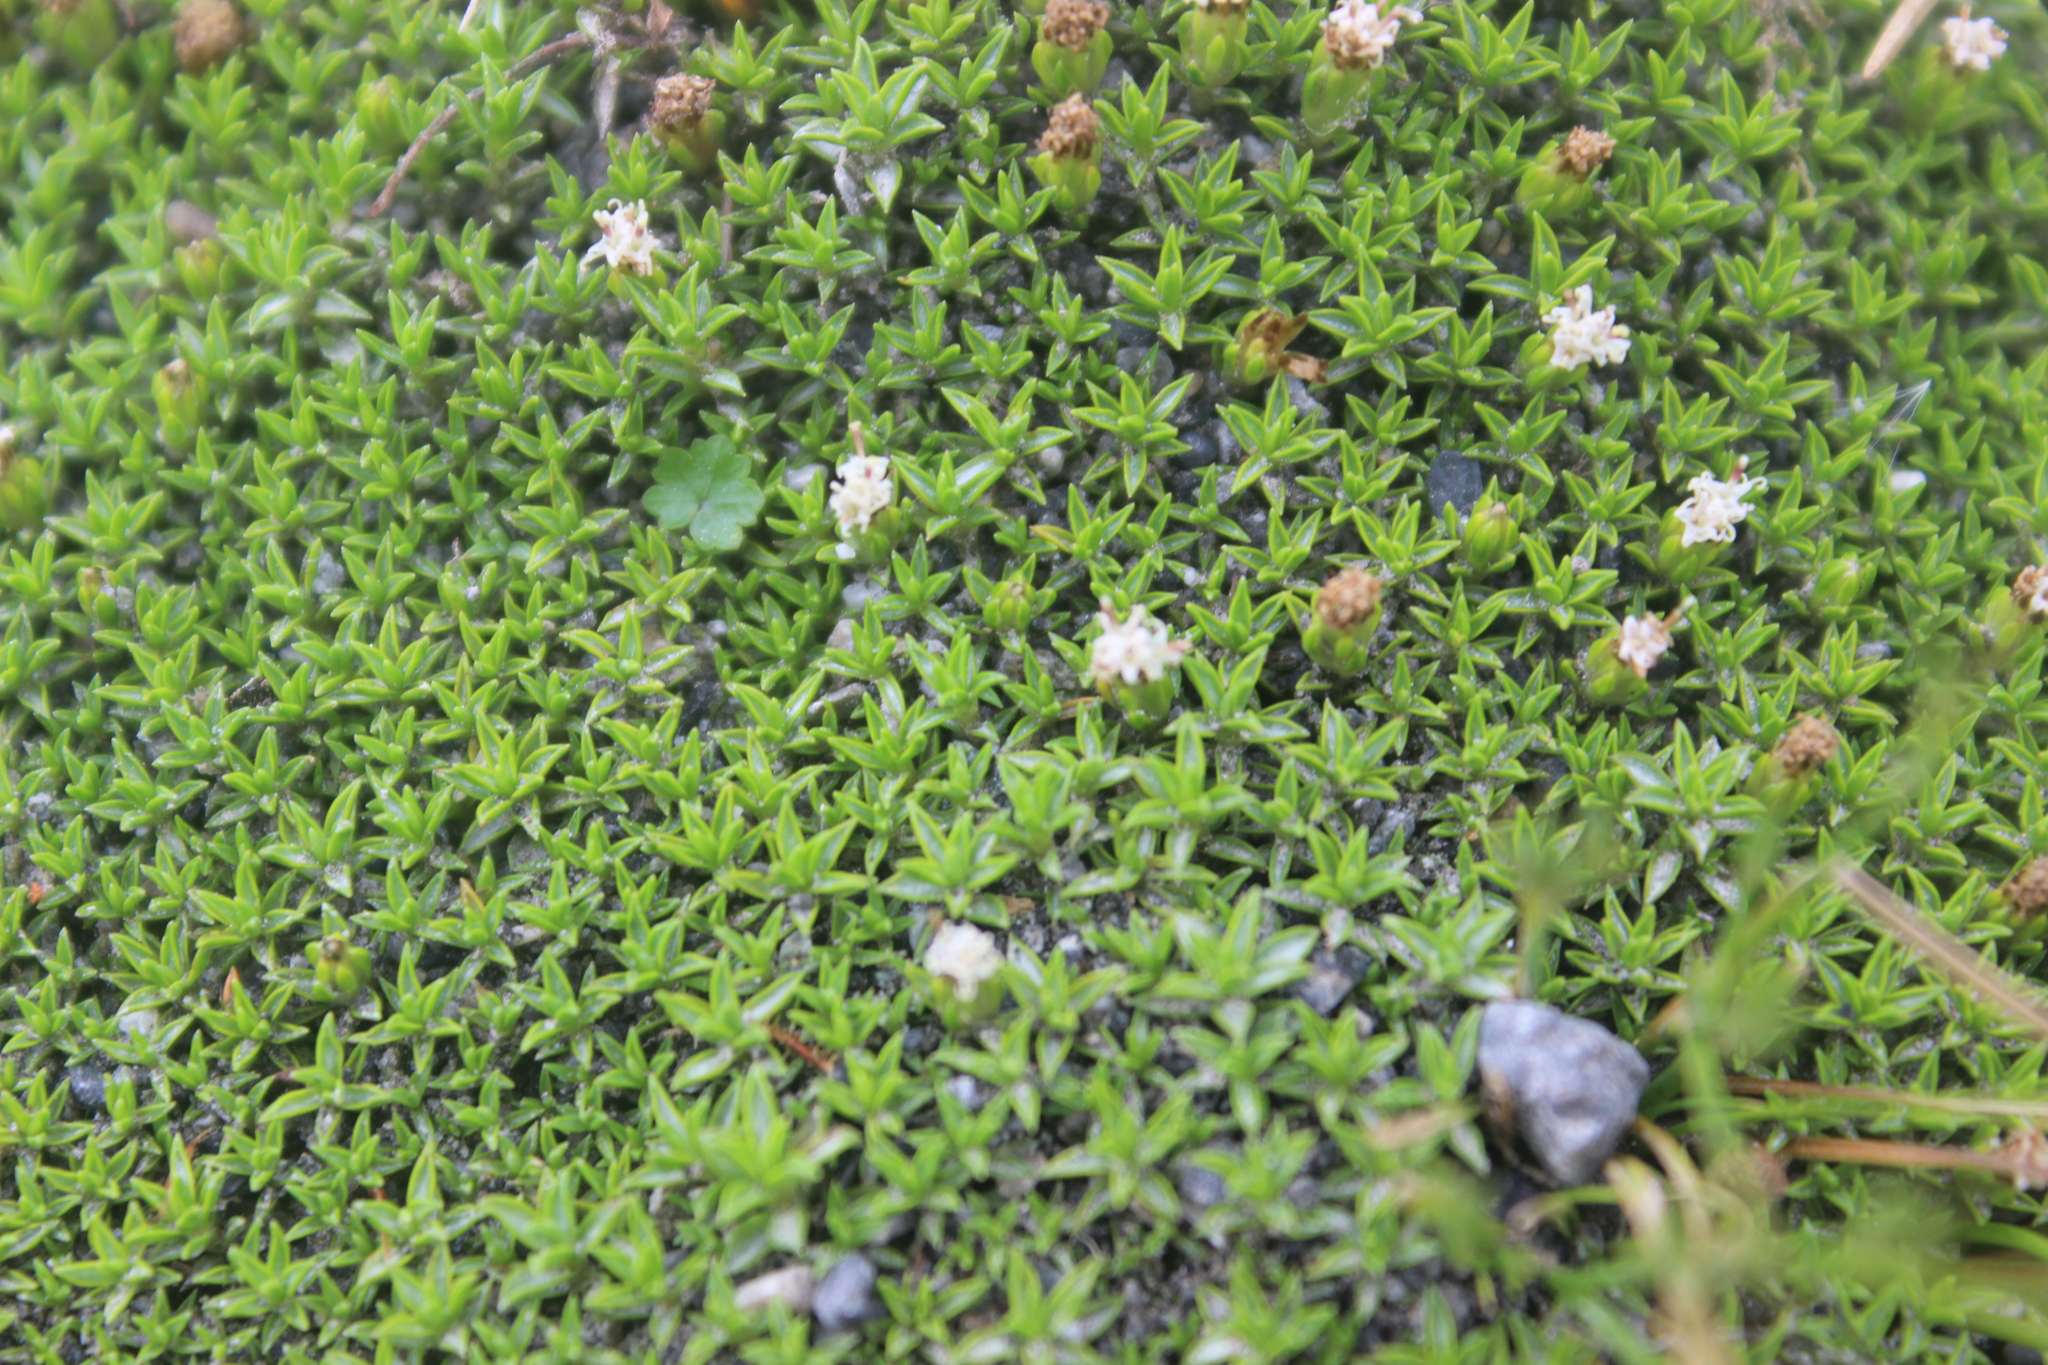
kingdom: Plantae
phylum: Tracheophyta
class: Magnoliopsida
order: Asterales
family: Asteraceae
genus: Raoulia
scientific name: Raoulia tenuicaulis
